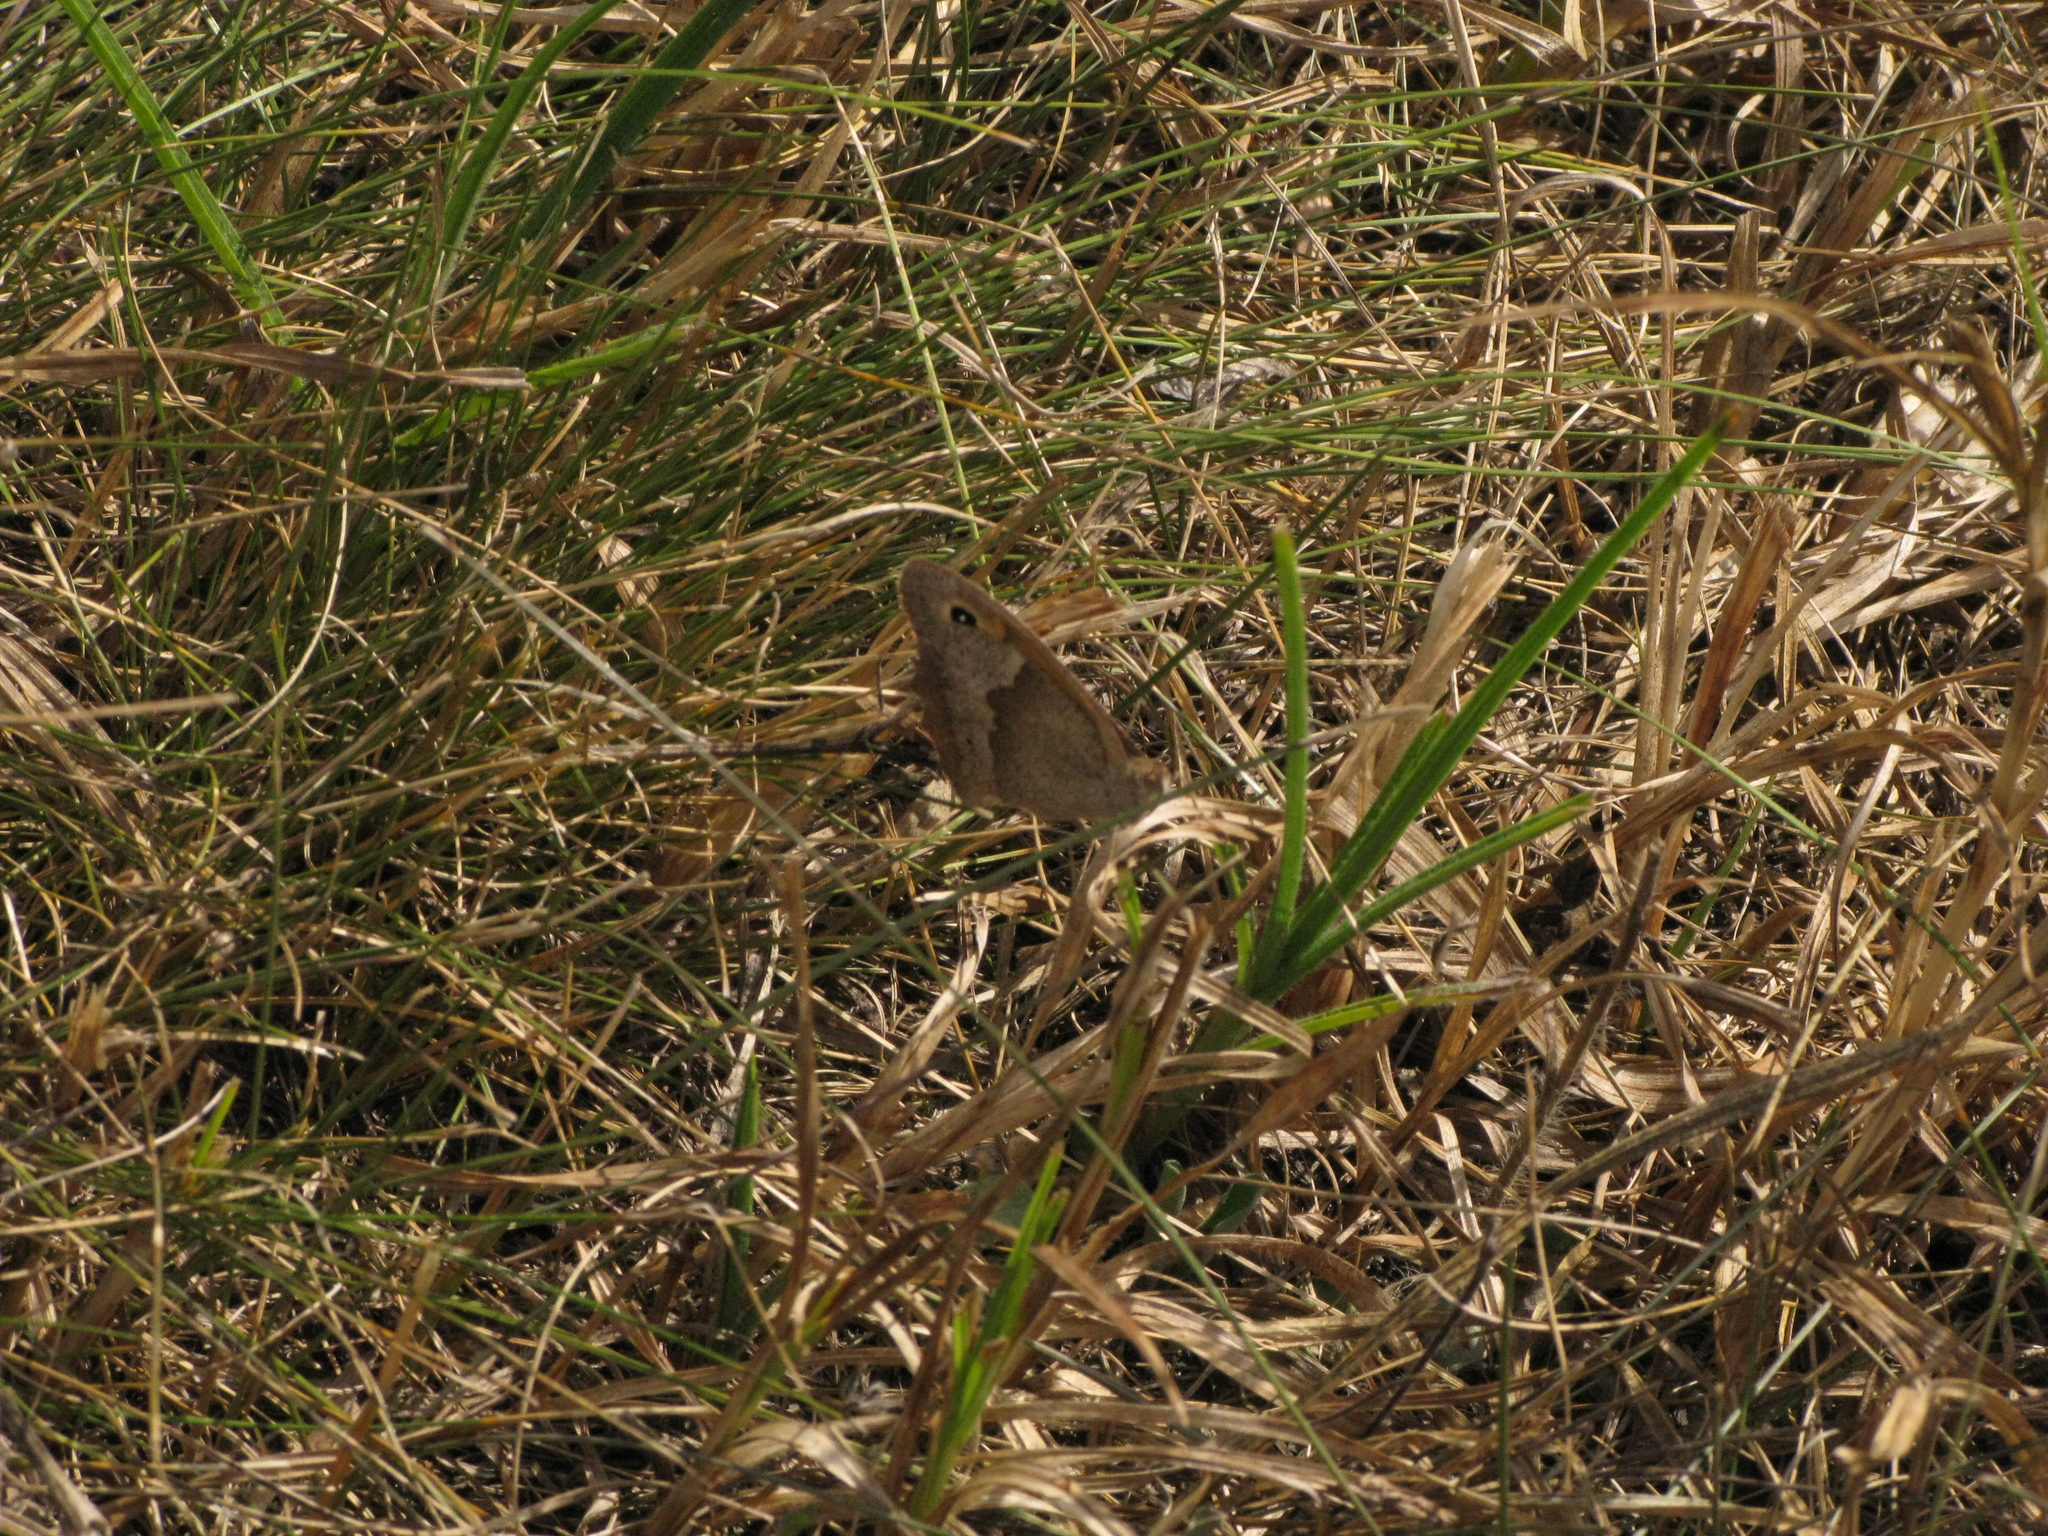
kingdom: Animalia
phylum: Arthropoda
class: Insecta
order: Lepidoptera
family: Nymphalidae
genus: Maniola
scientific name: Maniola jurtina
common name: Meadow brown
